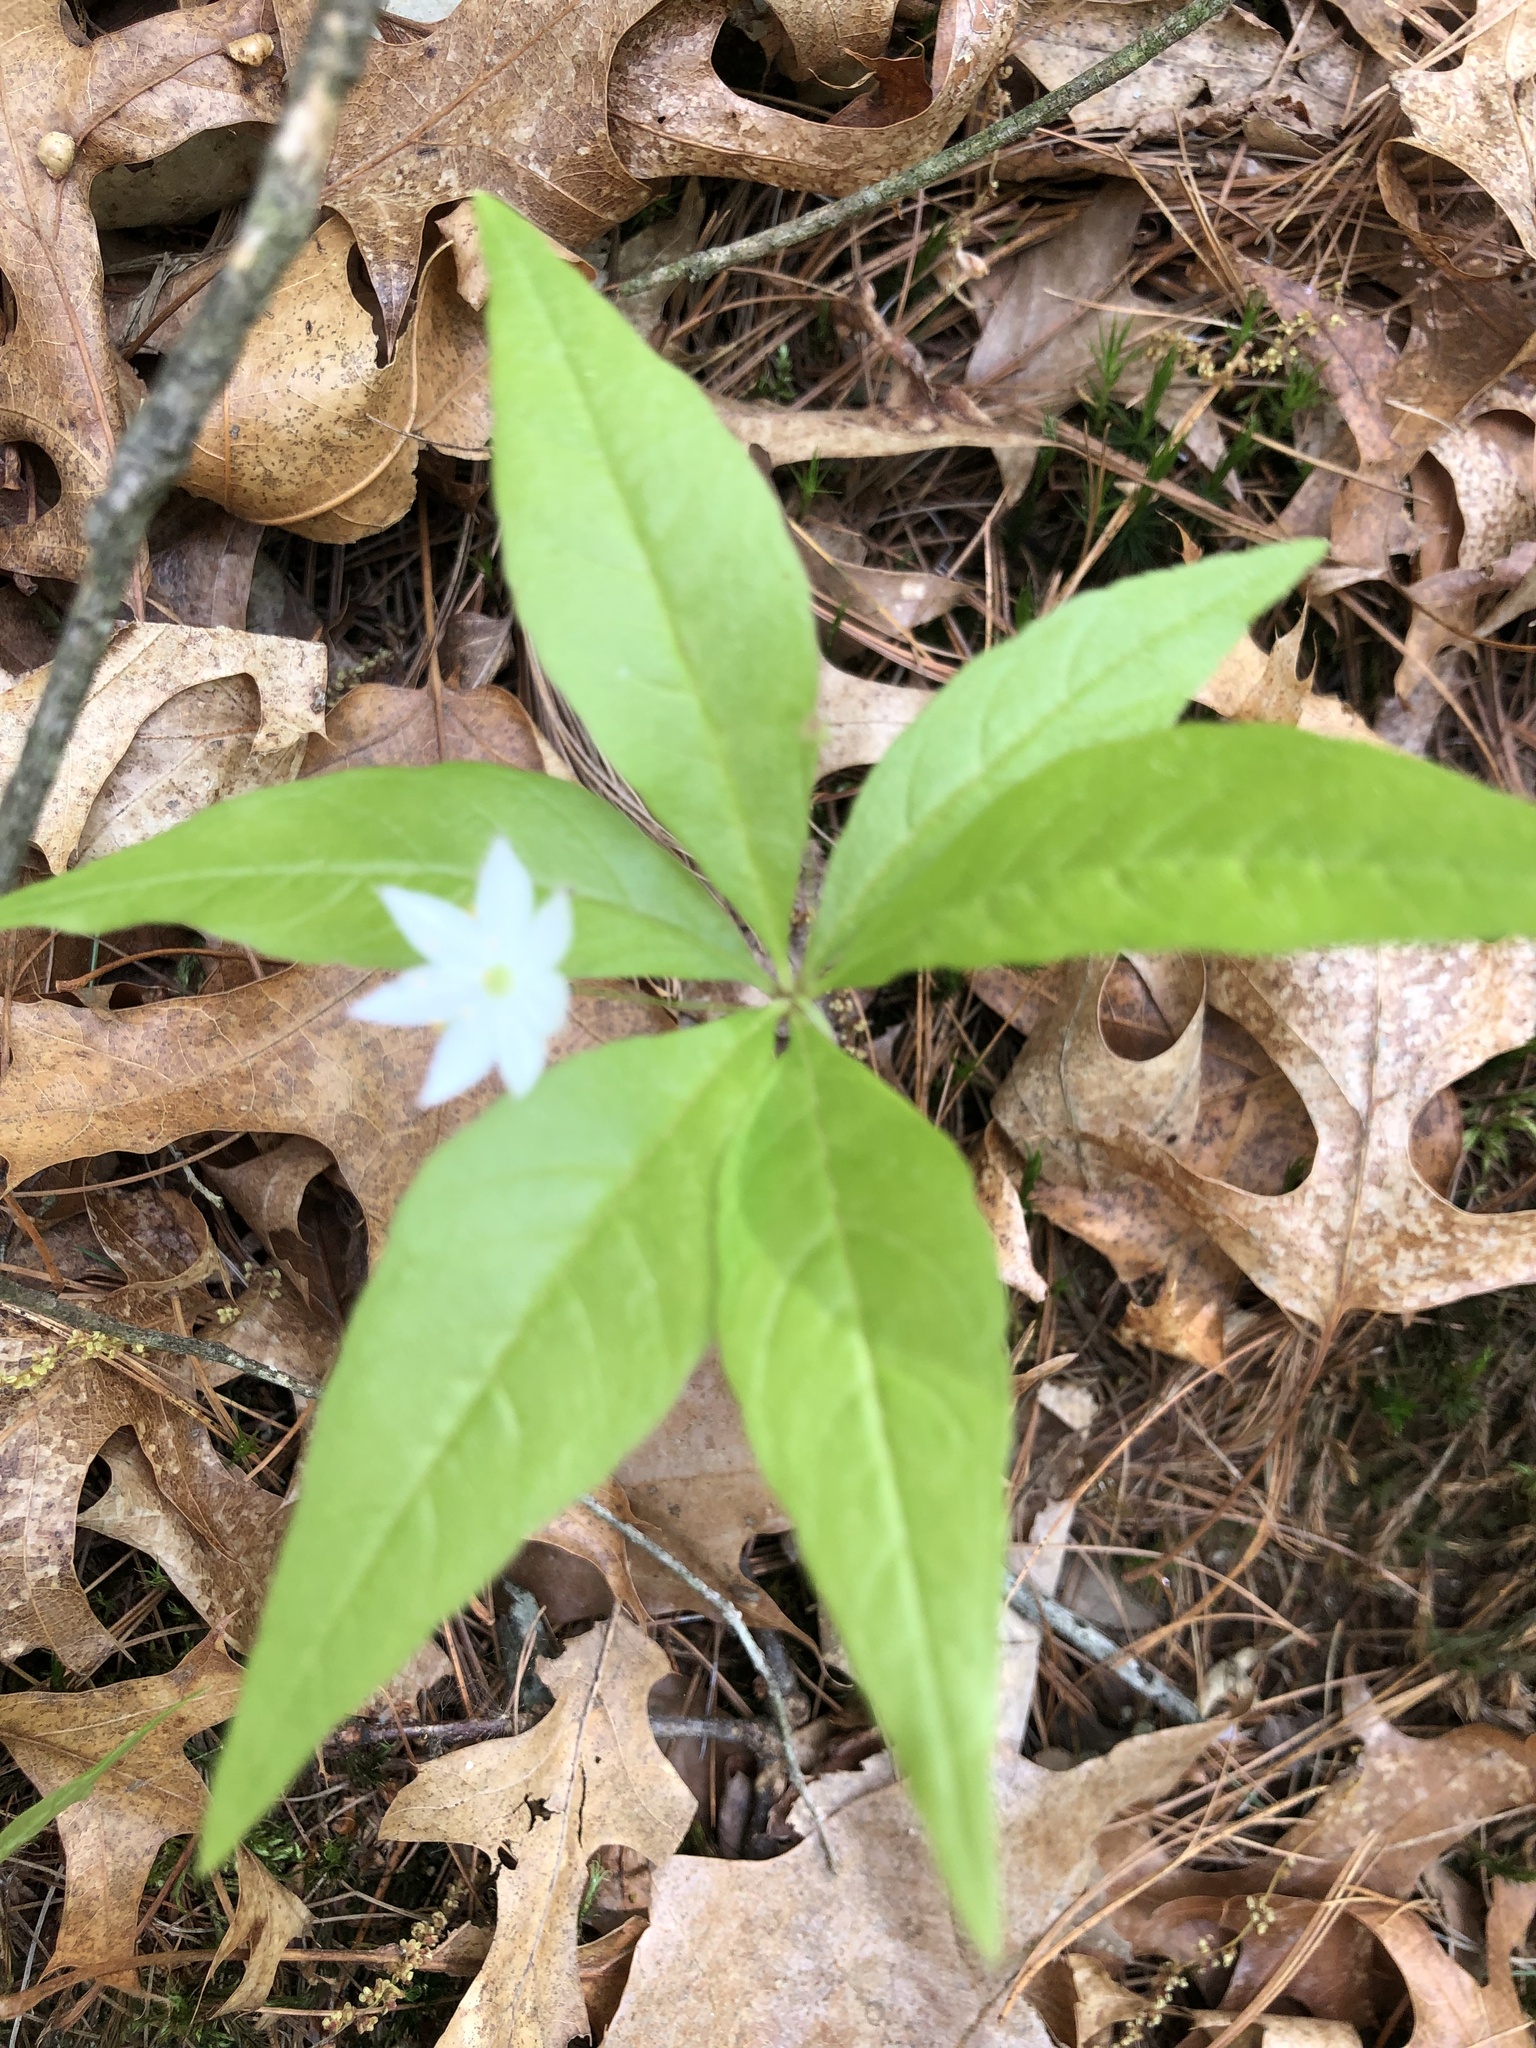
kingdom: Plantae
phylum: Tracheophyta
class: Magnoliopsida
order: Ericales
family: Primulaceae
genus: Lysimachia
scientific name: Lysimachia borealis
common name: American starflower
